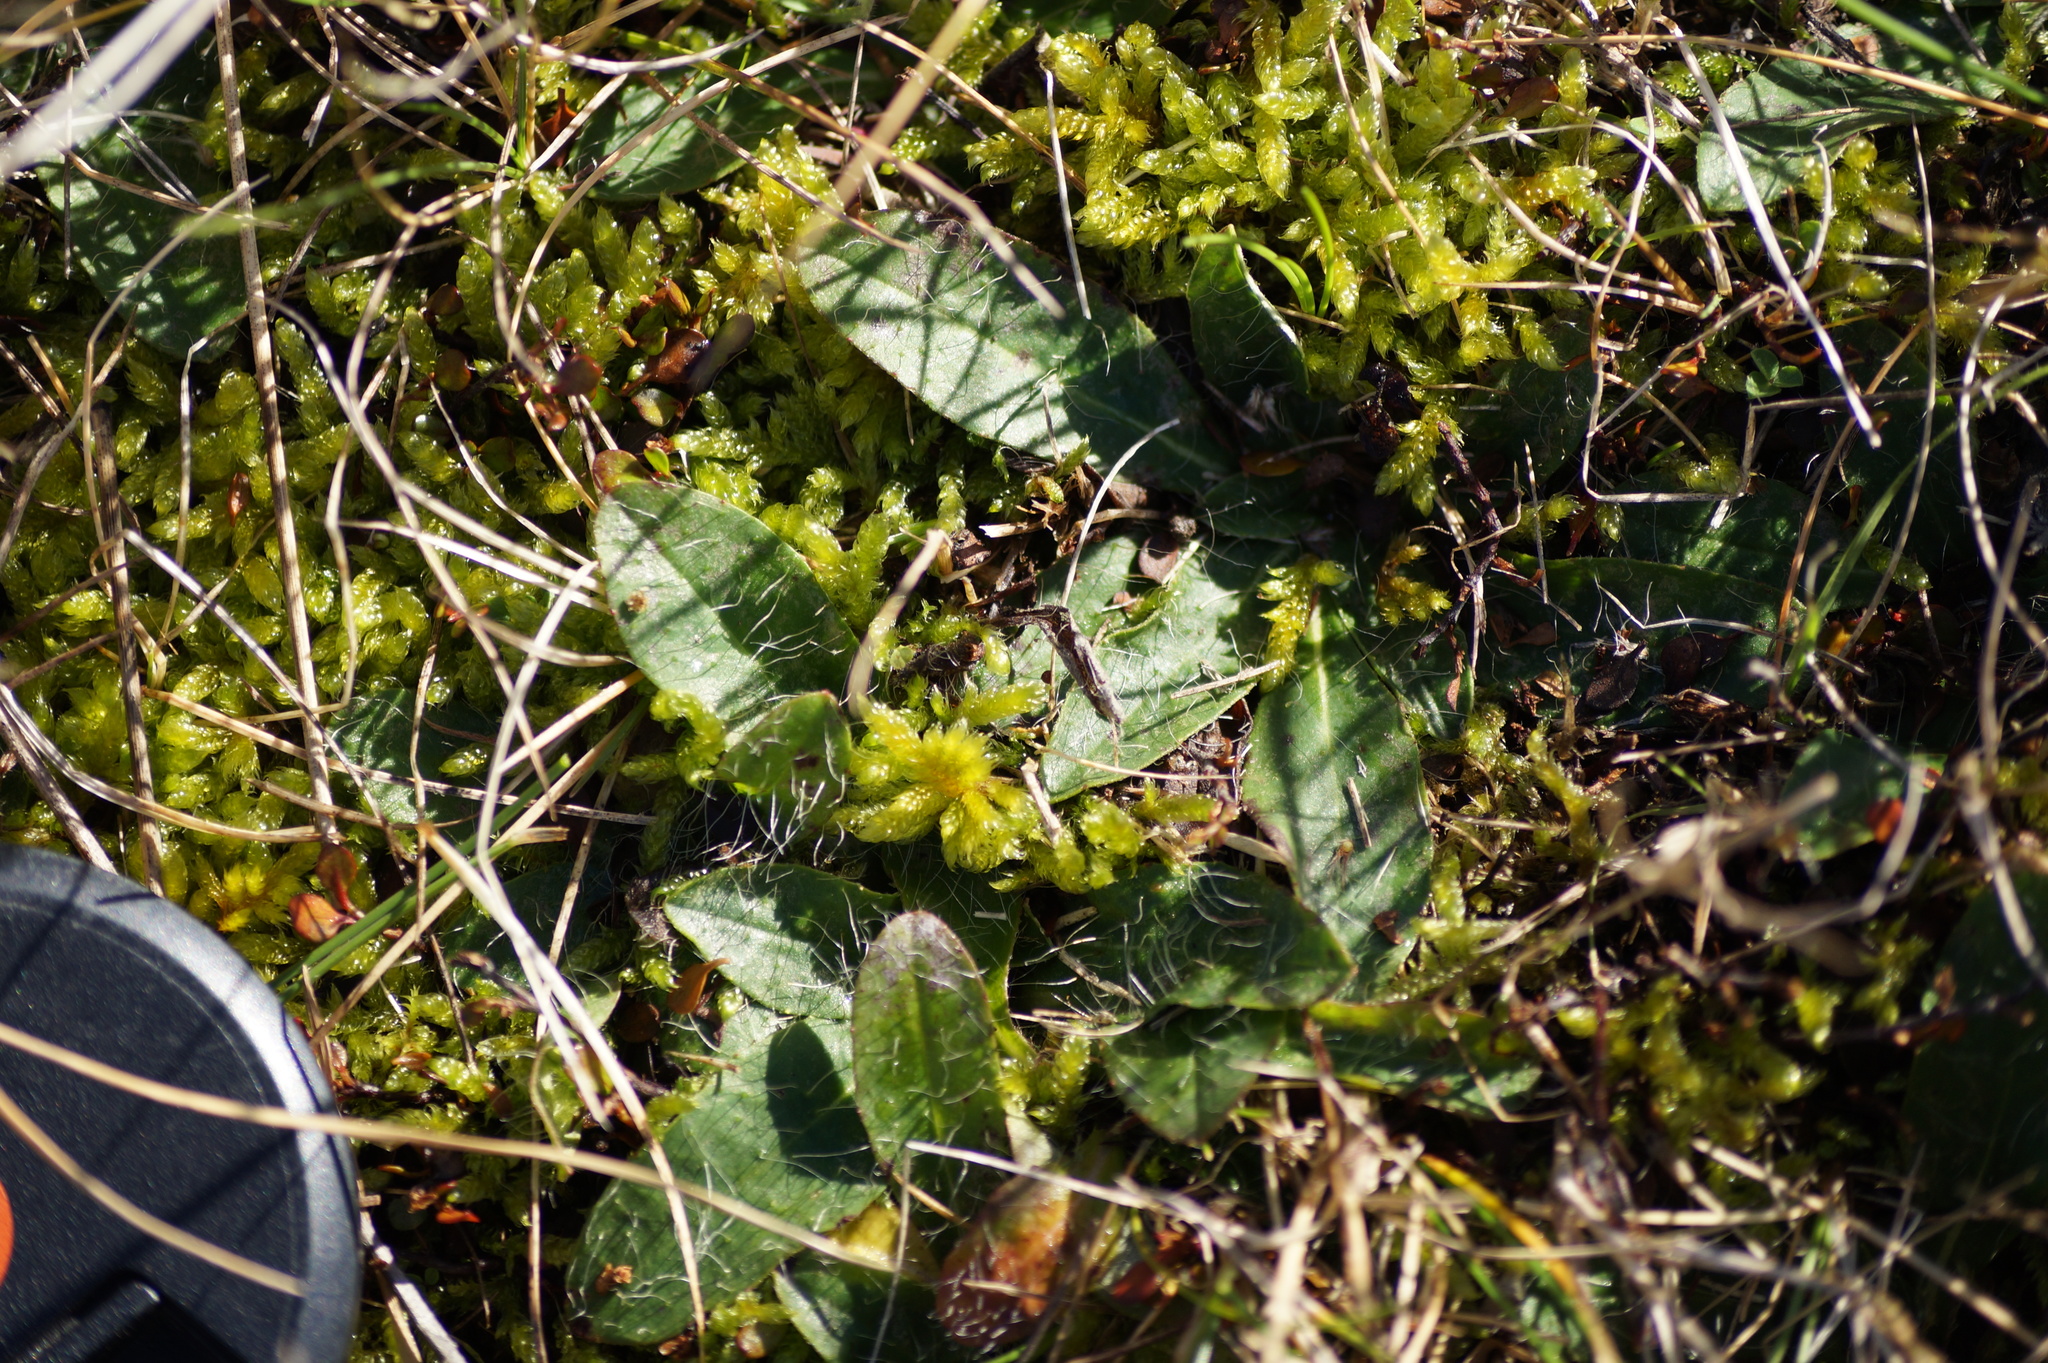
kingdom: Plantae
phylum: Tracheophyta
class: Magnoliopsida
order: Asterales
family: Asteraceae
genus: Pilosella
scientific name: Pilosella officinarum
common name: Mouse-ear hawkweed
